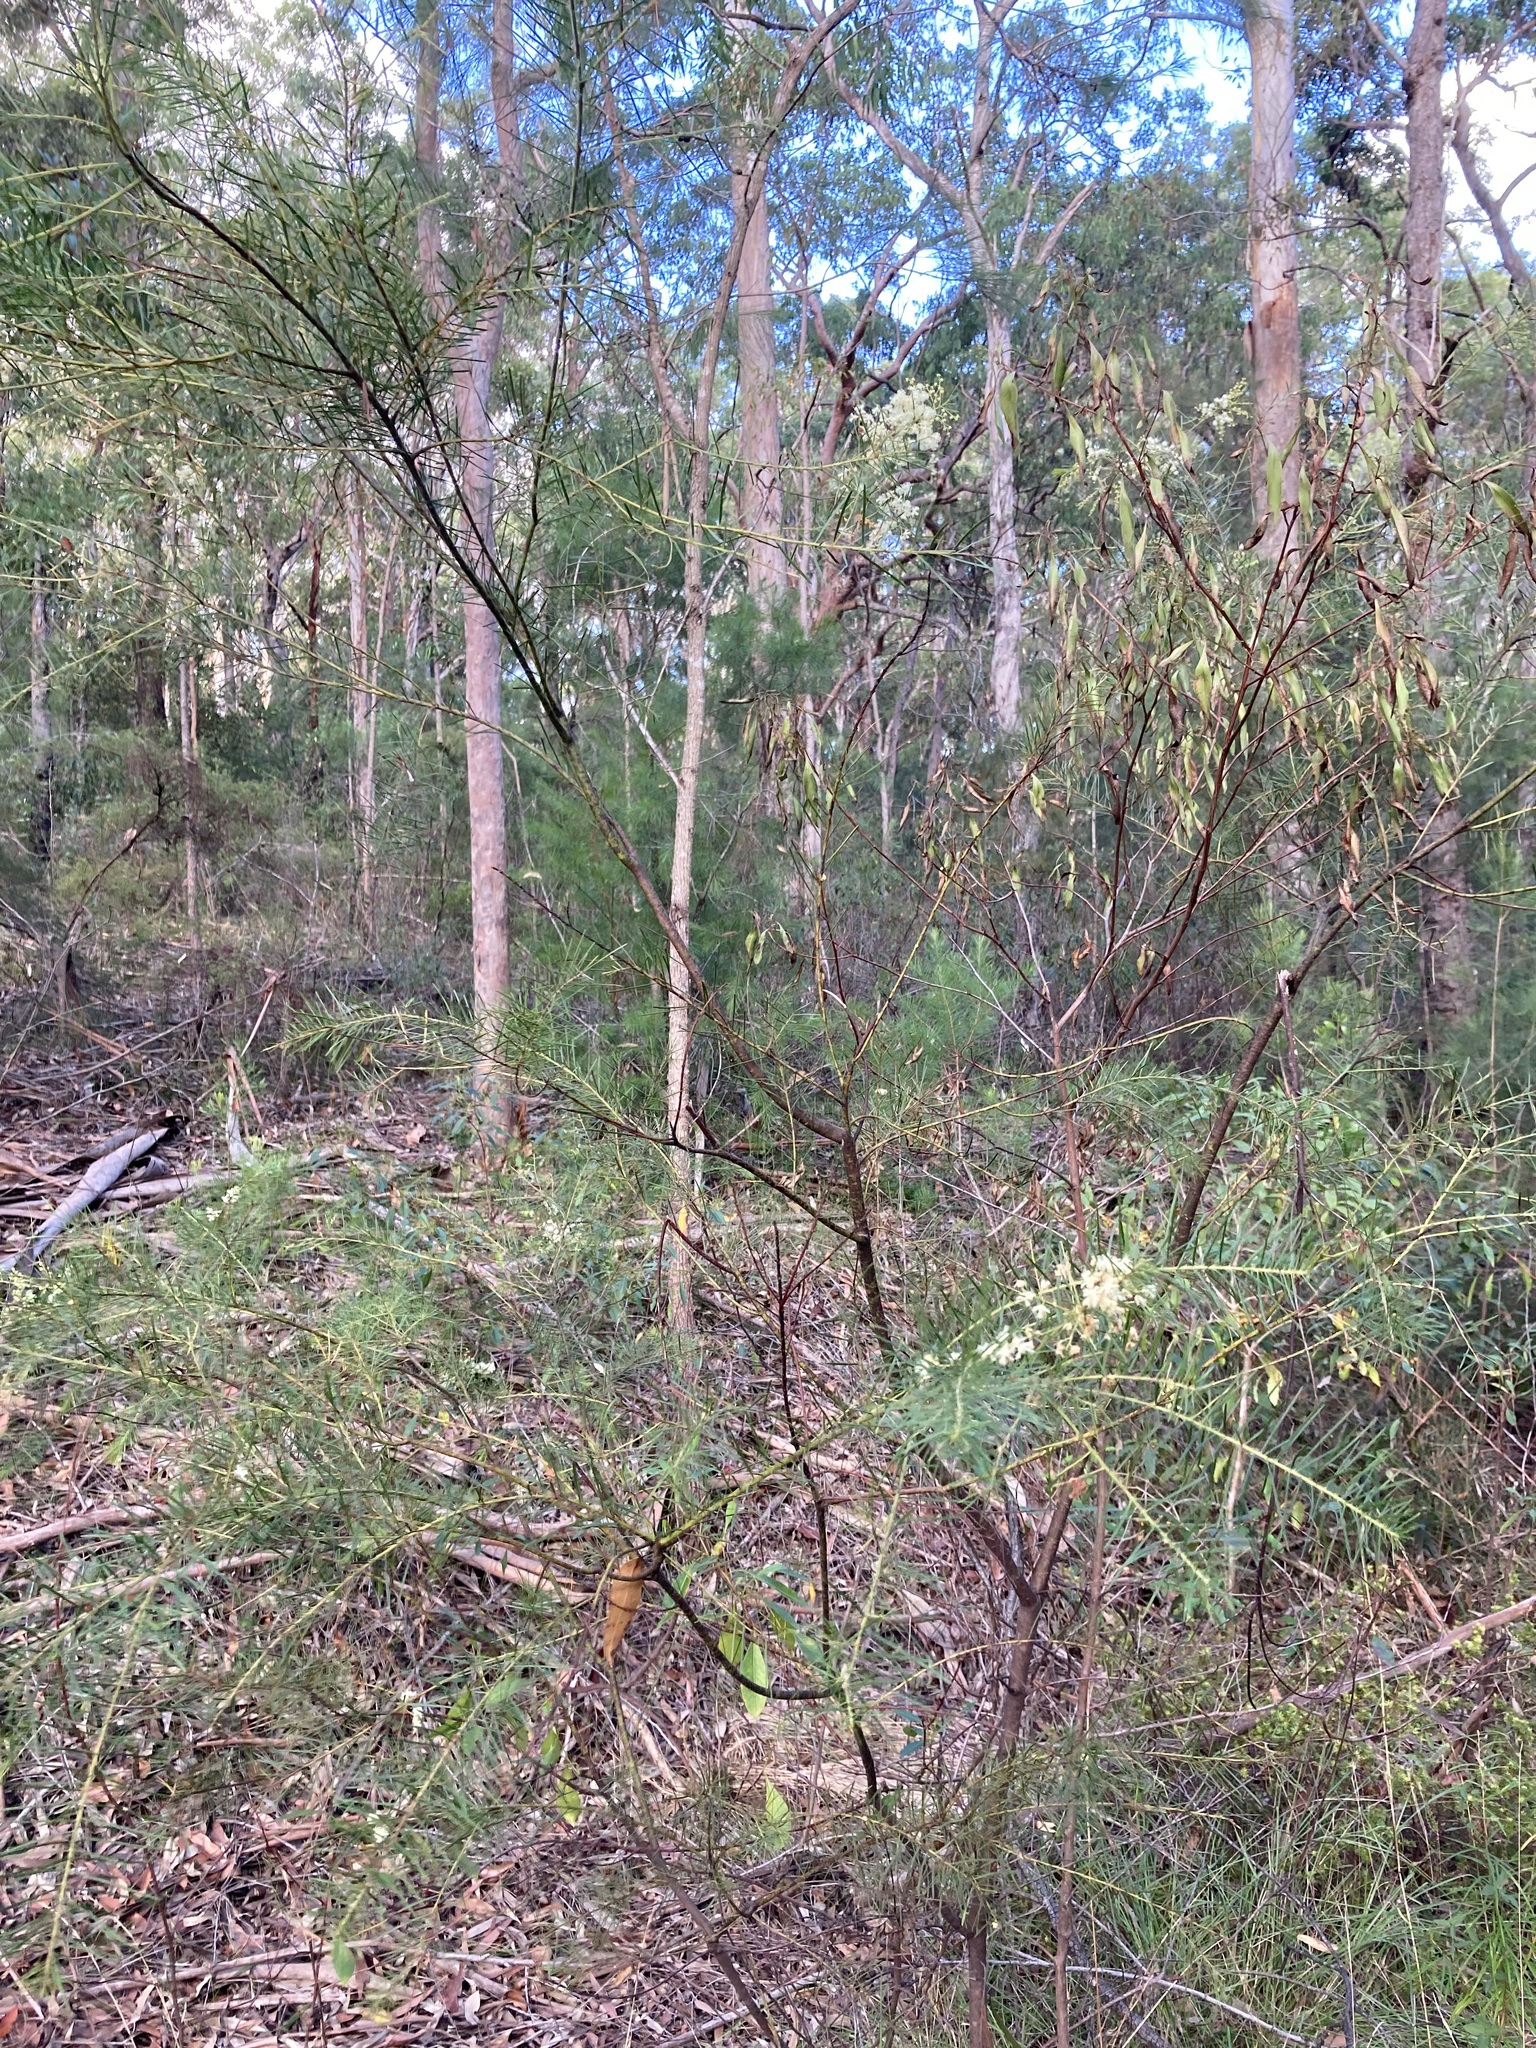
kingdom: Plantae
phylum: Tracheophyta
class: Magnoliopsida
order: Fabales
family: Fabaceae
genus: Acacia
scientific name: Acacia linifolia
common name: White wattle
